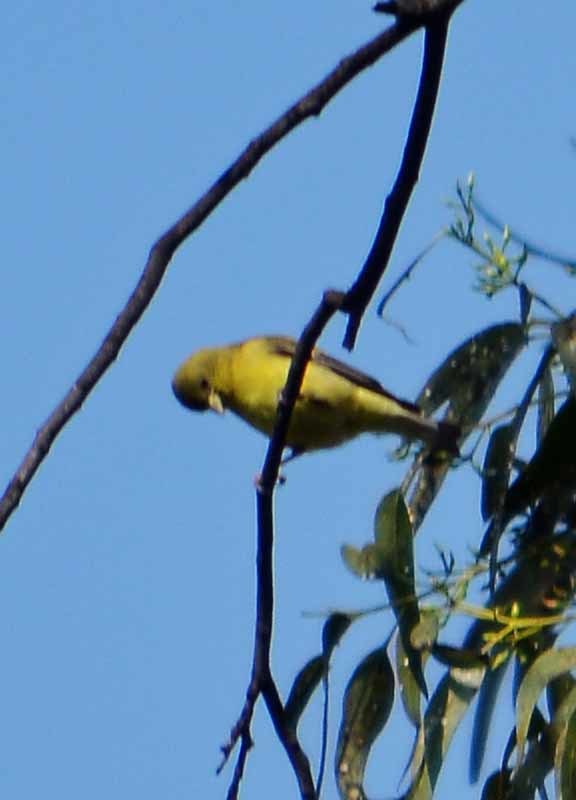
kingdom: Animalia
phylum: Chordata
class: Aves
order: Passeriformes
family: Fringillidae
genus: Spinus
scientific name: Spinus psaltria
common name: Lesser goldfinch
